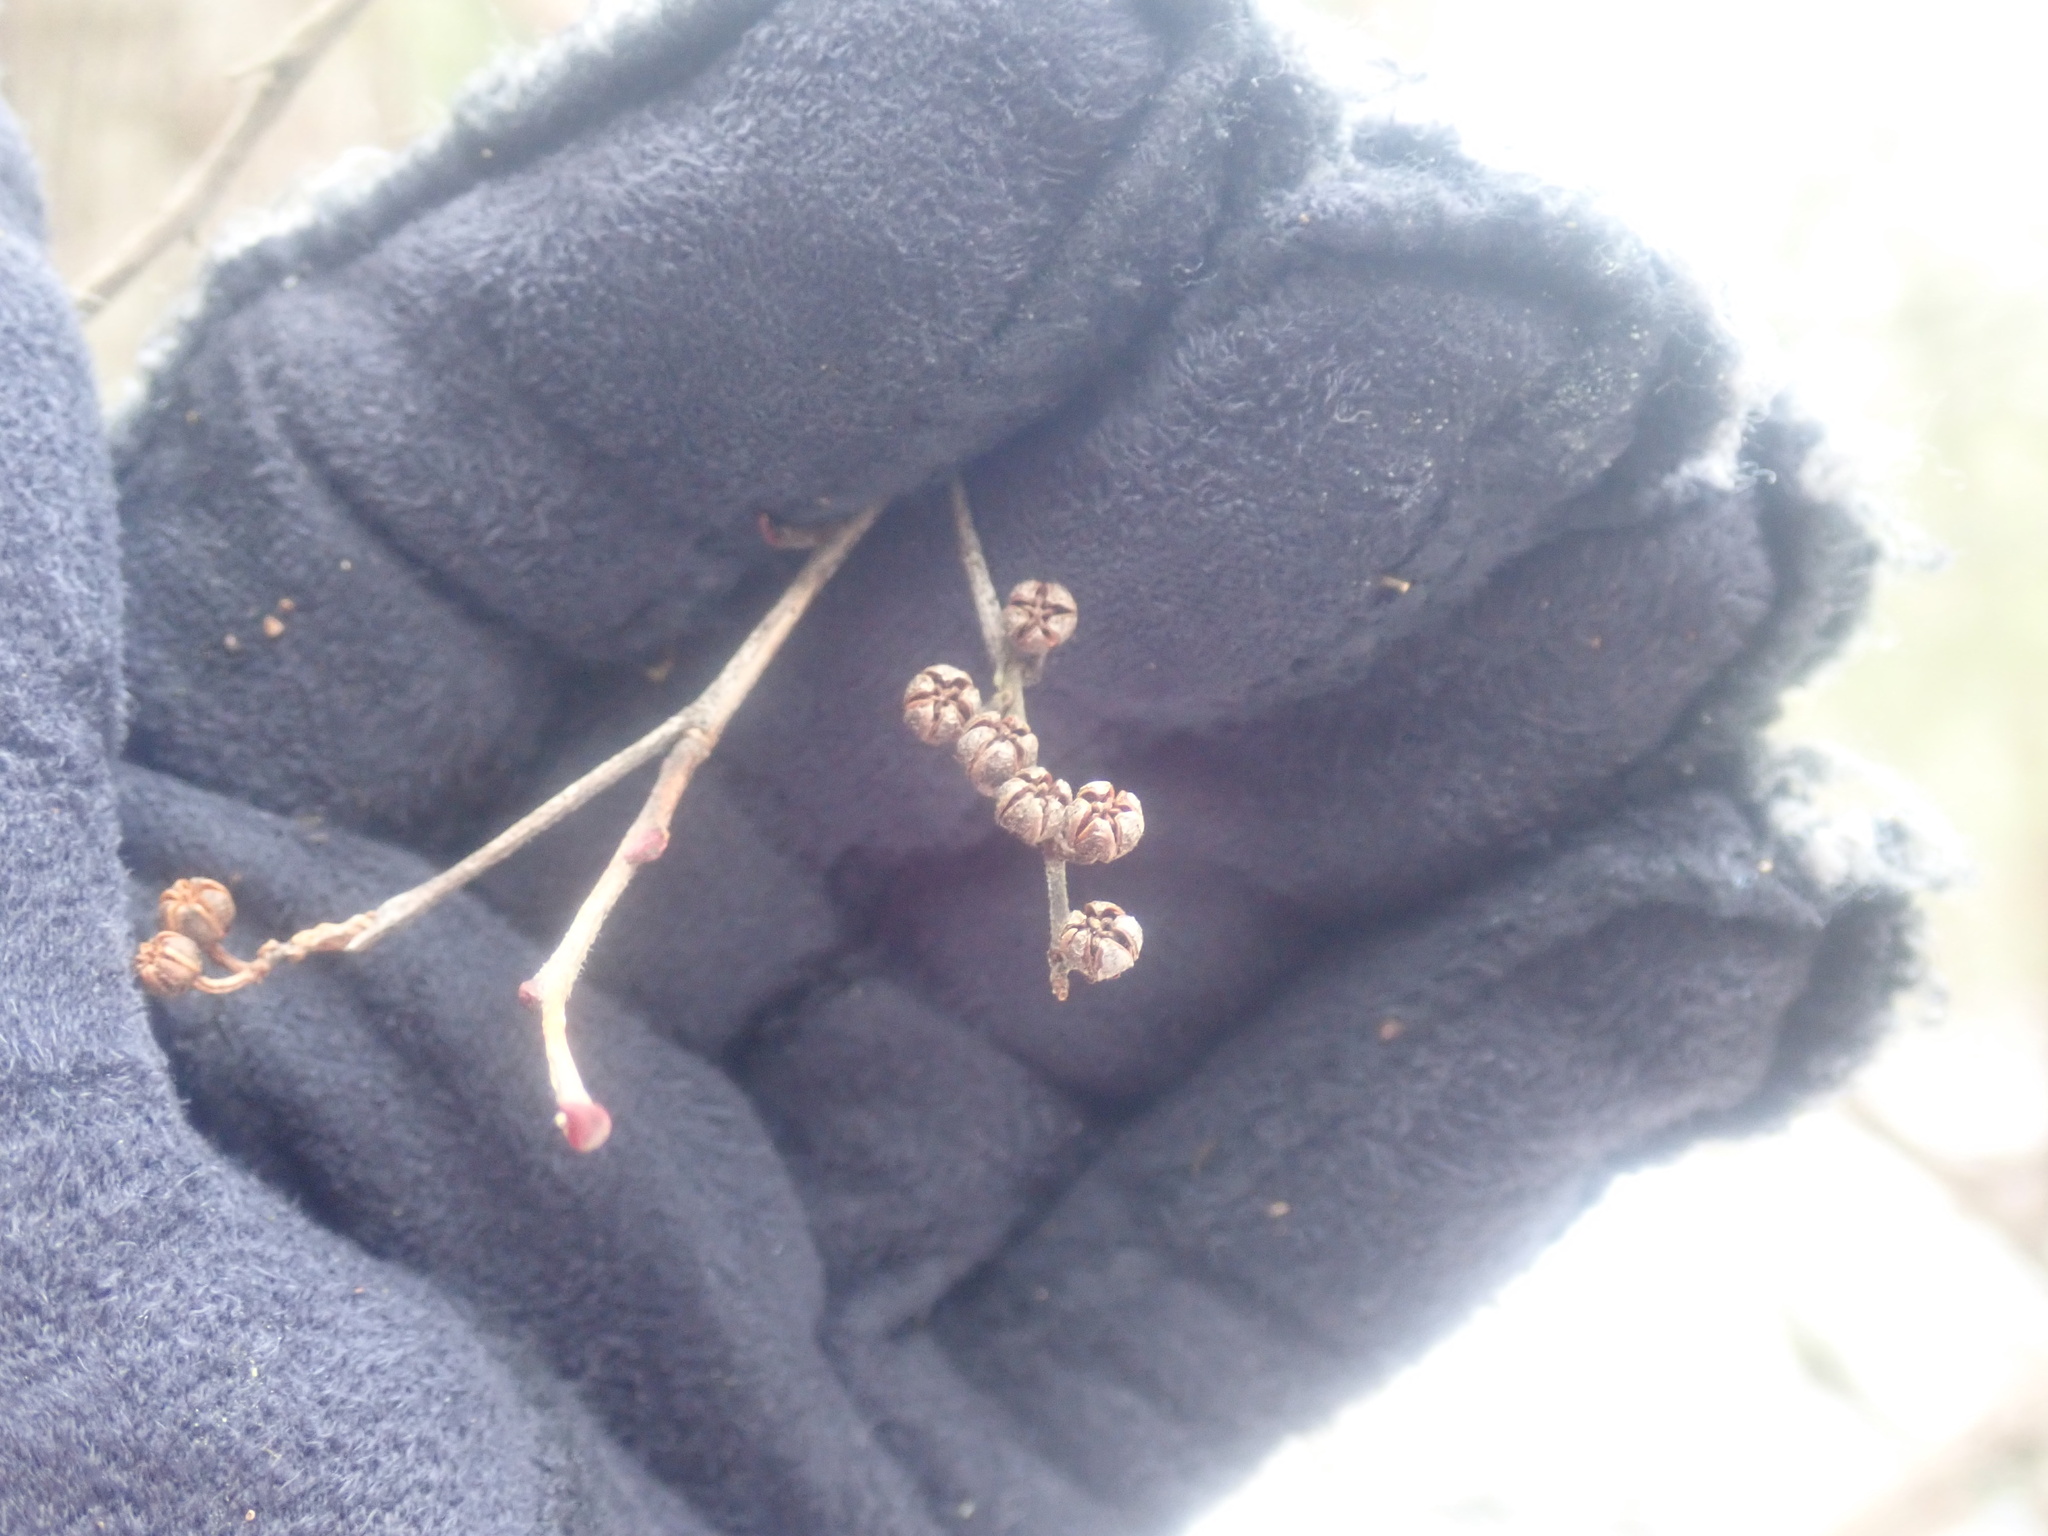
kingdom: Plantae
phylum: Tracheophyta
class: Magnoliopsida
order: Ericales
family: Ericaceae
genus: Lyonia
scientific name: Lyonia ligustrina
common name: Maleberry
